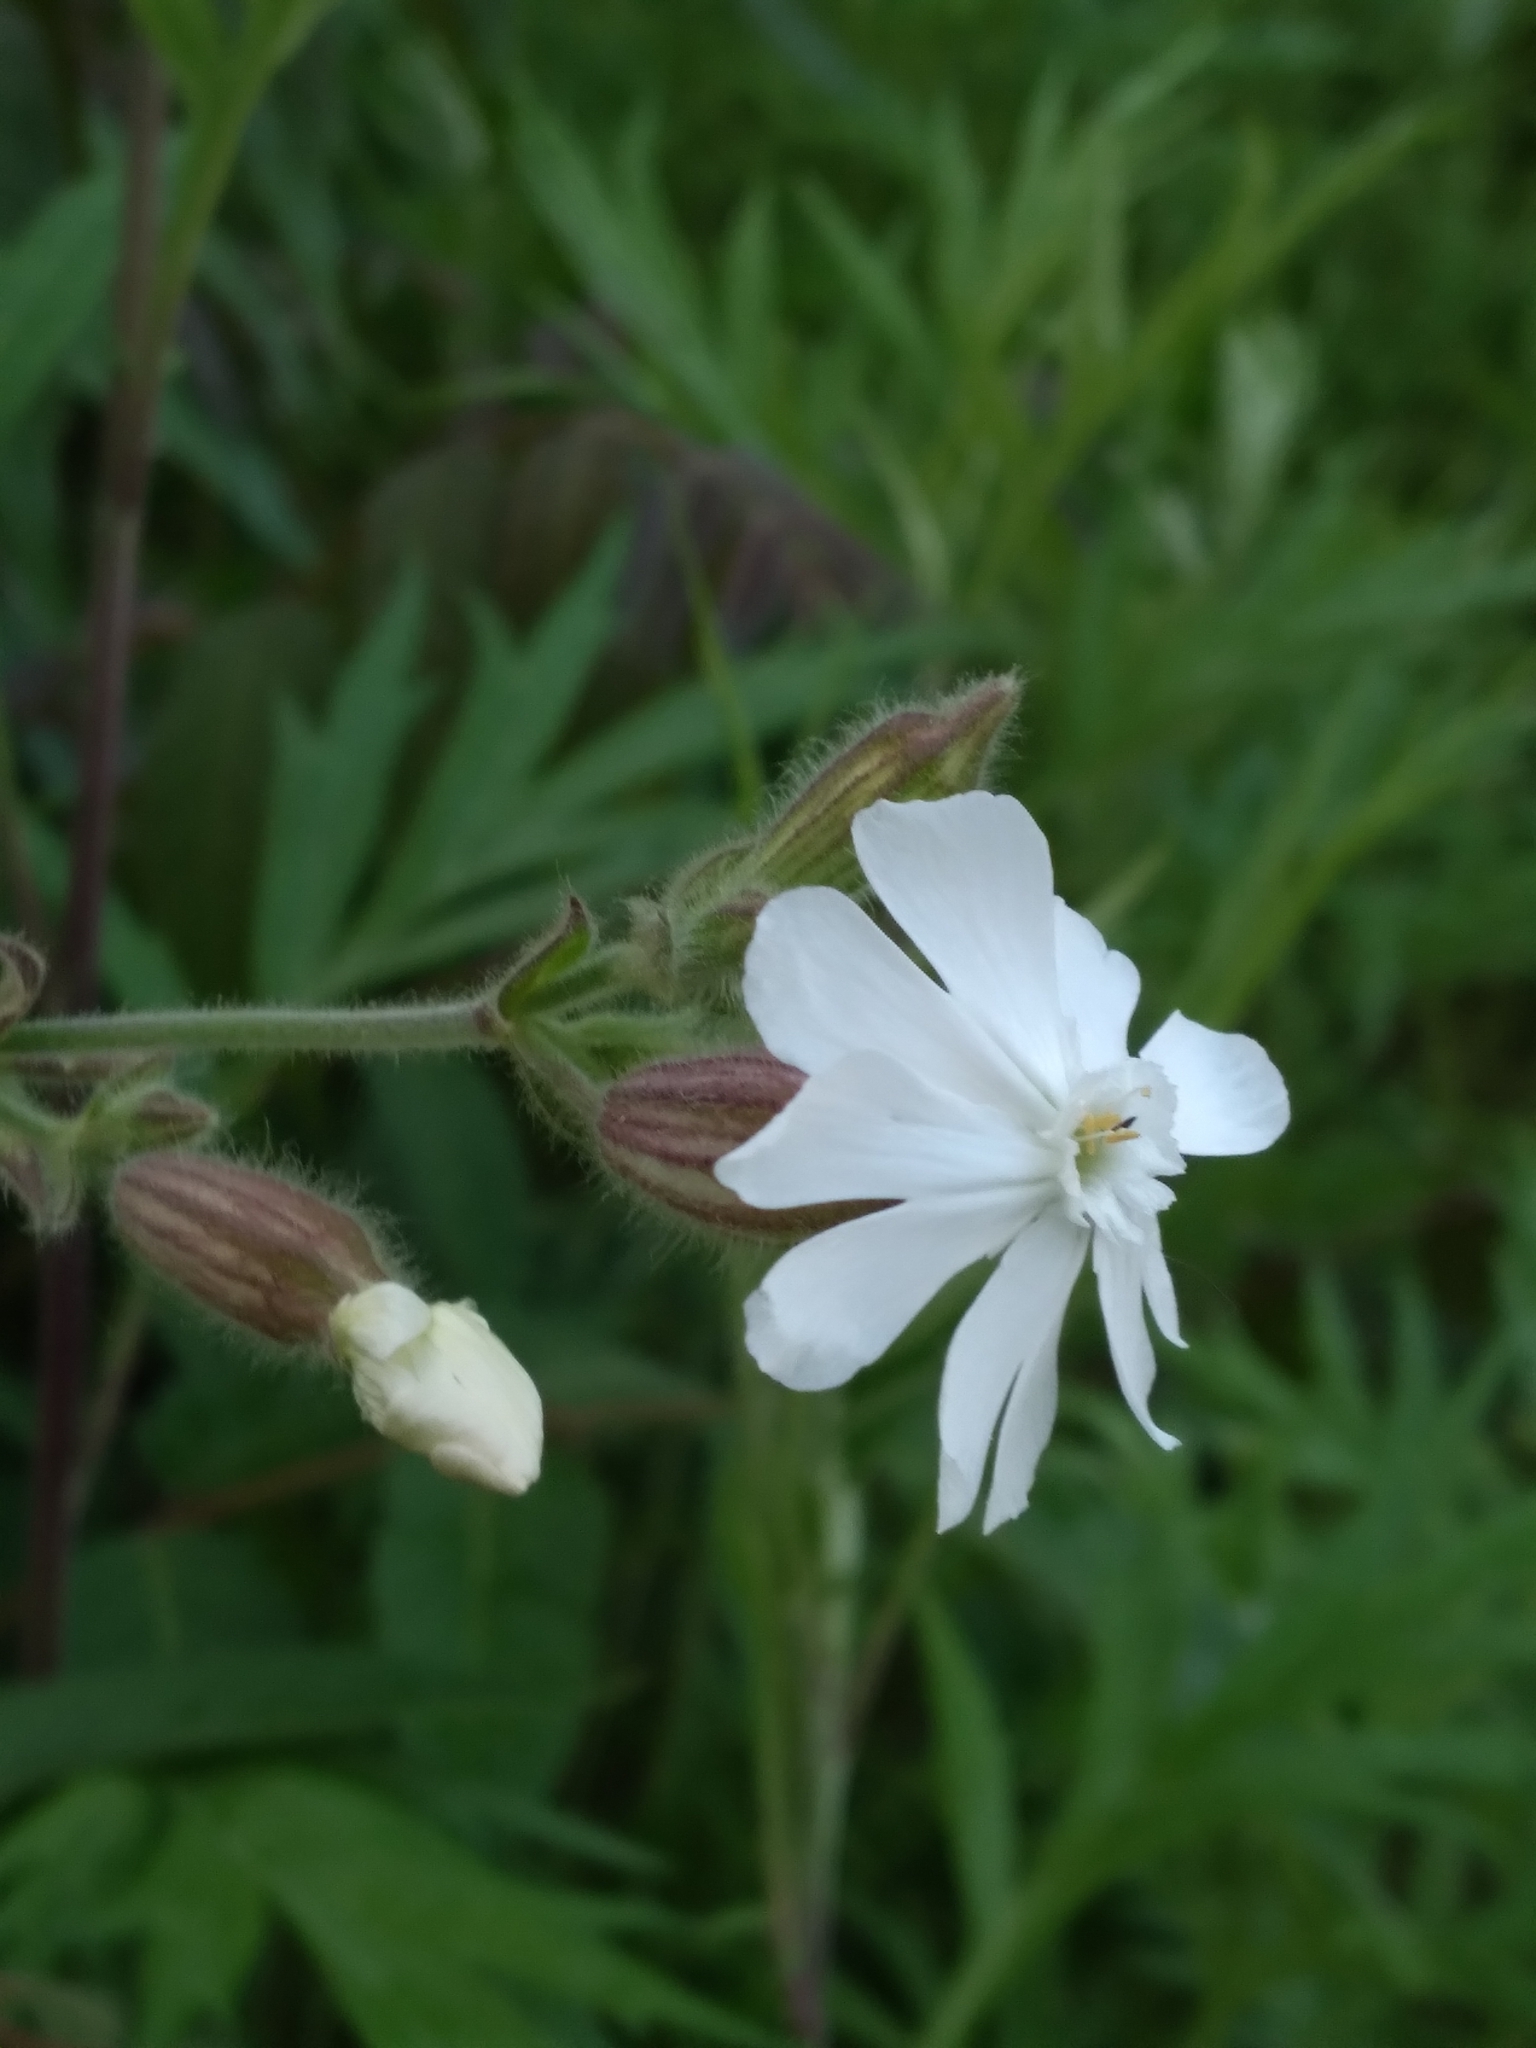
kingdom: Plantae
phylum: Tracheophyta
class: Magnoliopsida
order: Caryophyllales
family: Caryophyllaceae
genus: Silene
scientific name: Silene latifolia
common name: White campion
